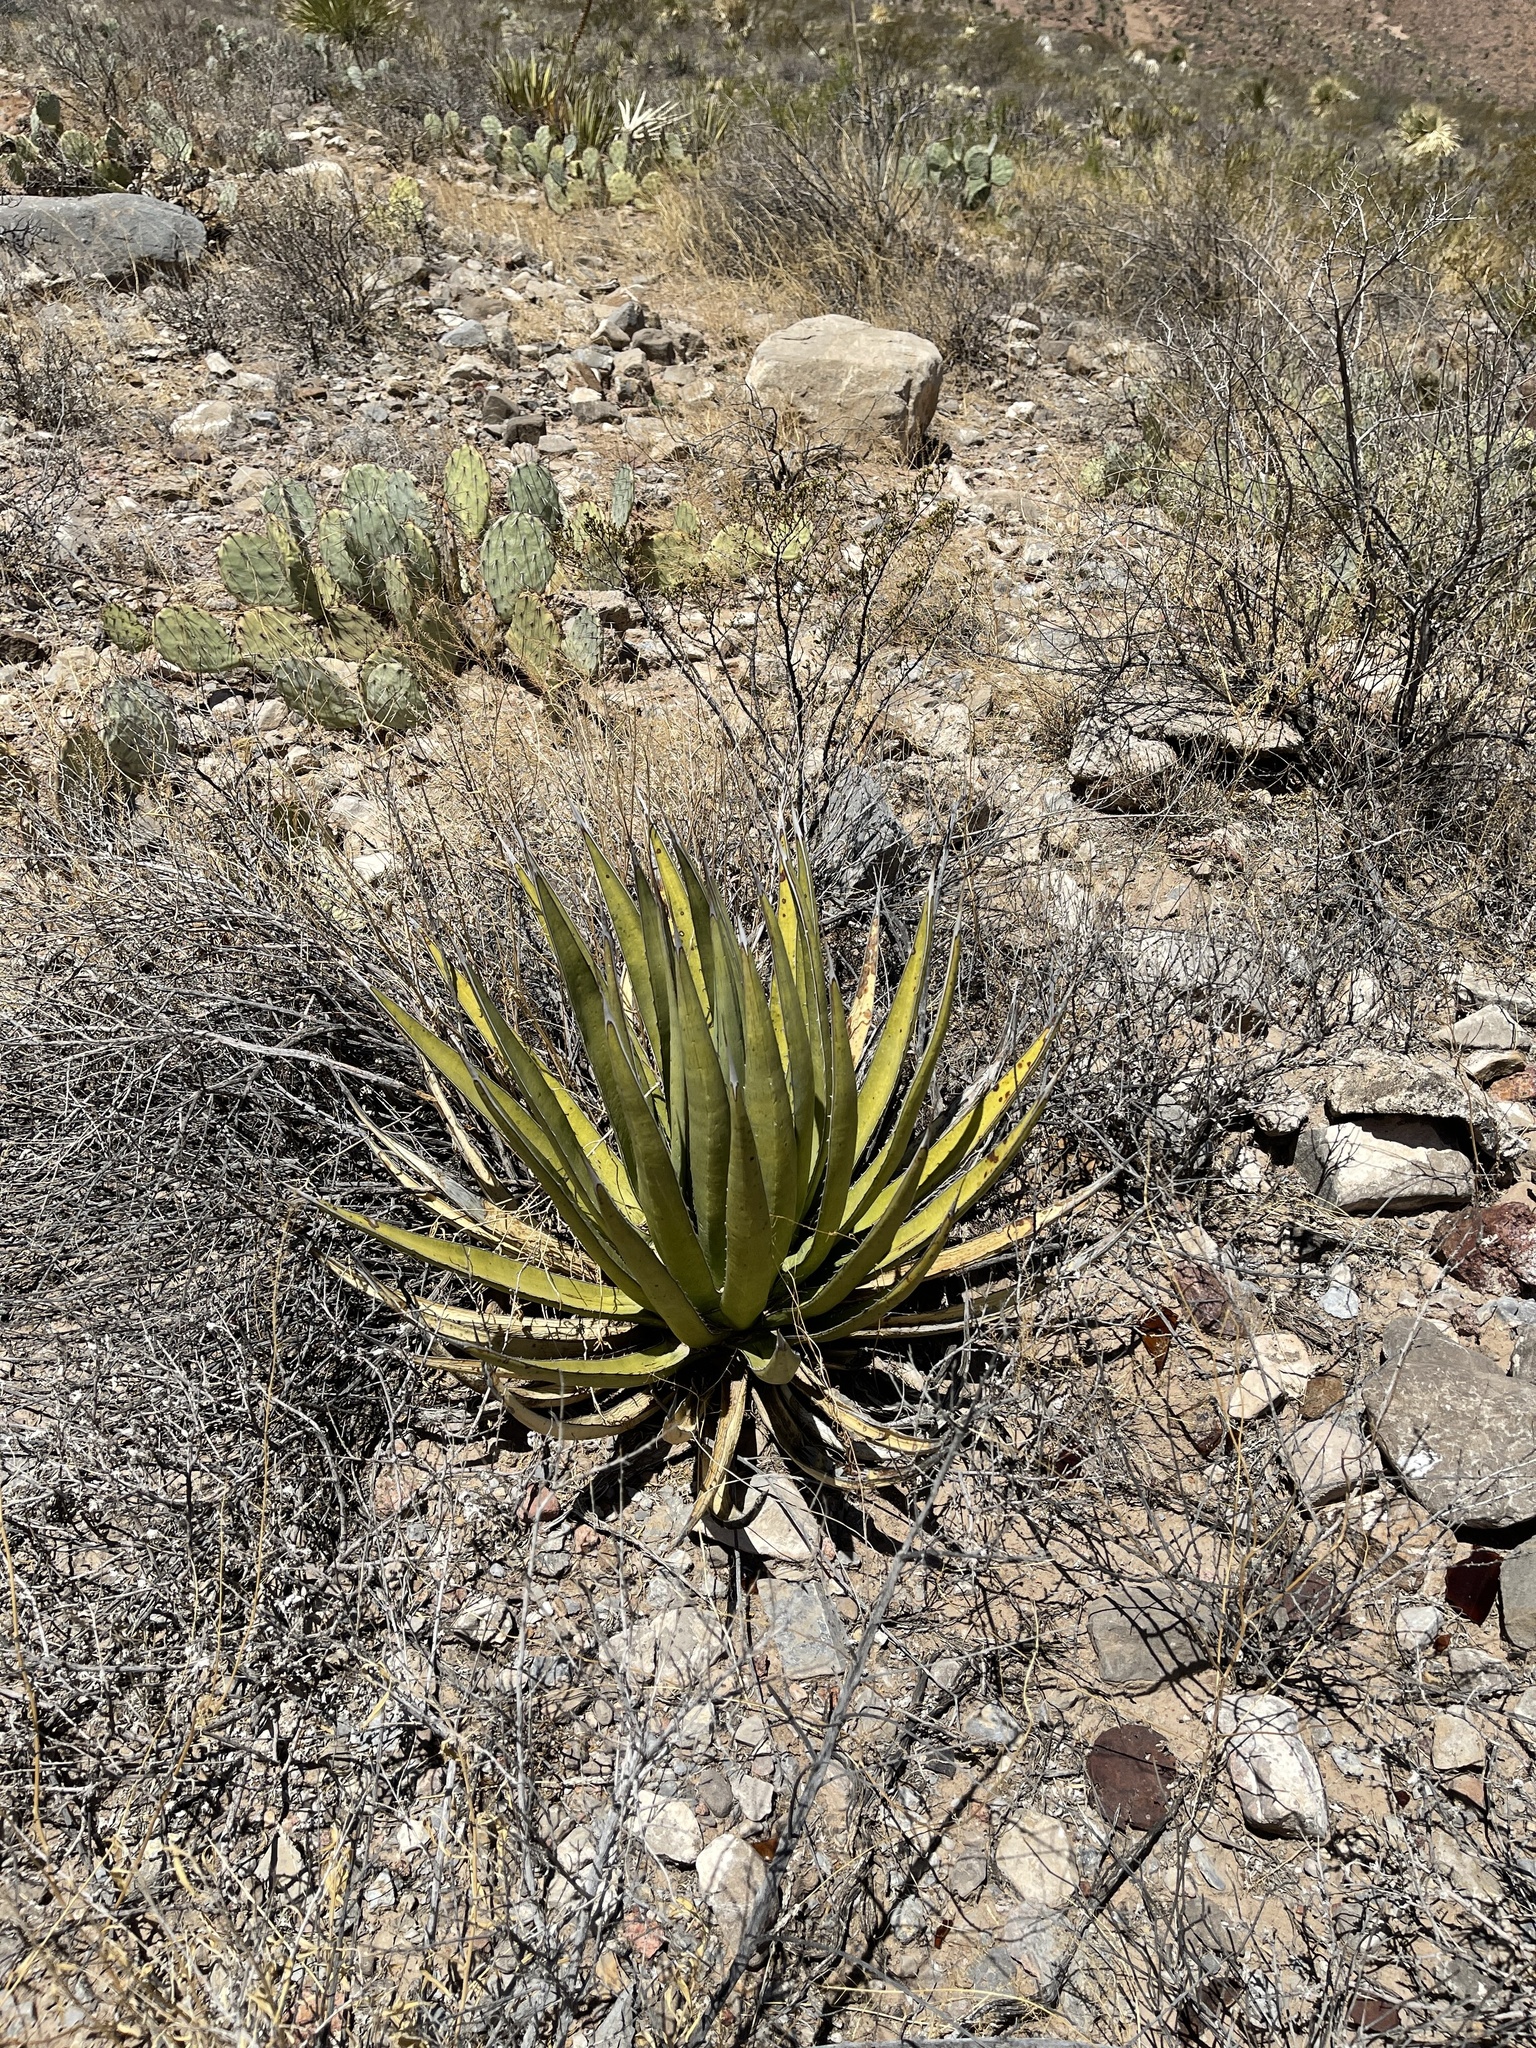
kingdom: Plantae
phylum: Tracheophyta
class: Liliopsida
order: Asparagales
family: Asparagaceae
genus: Agave
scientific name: Agave lechuguilla
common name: Lecheguilla agave
